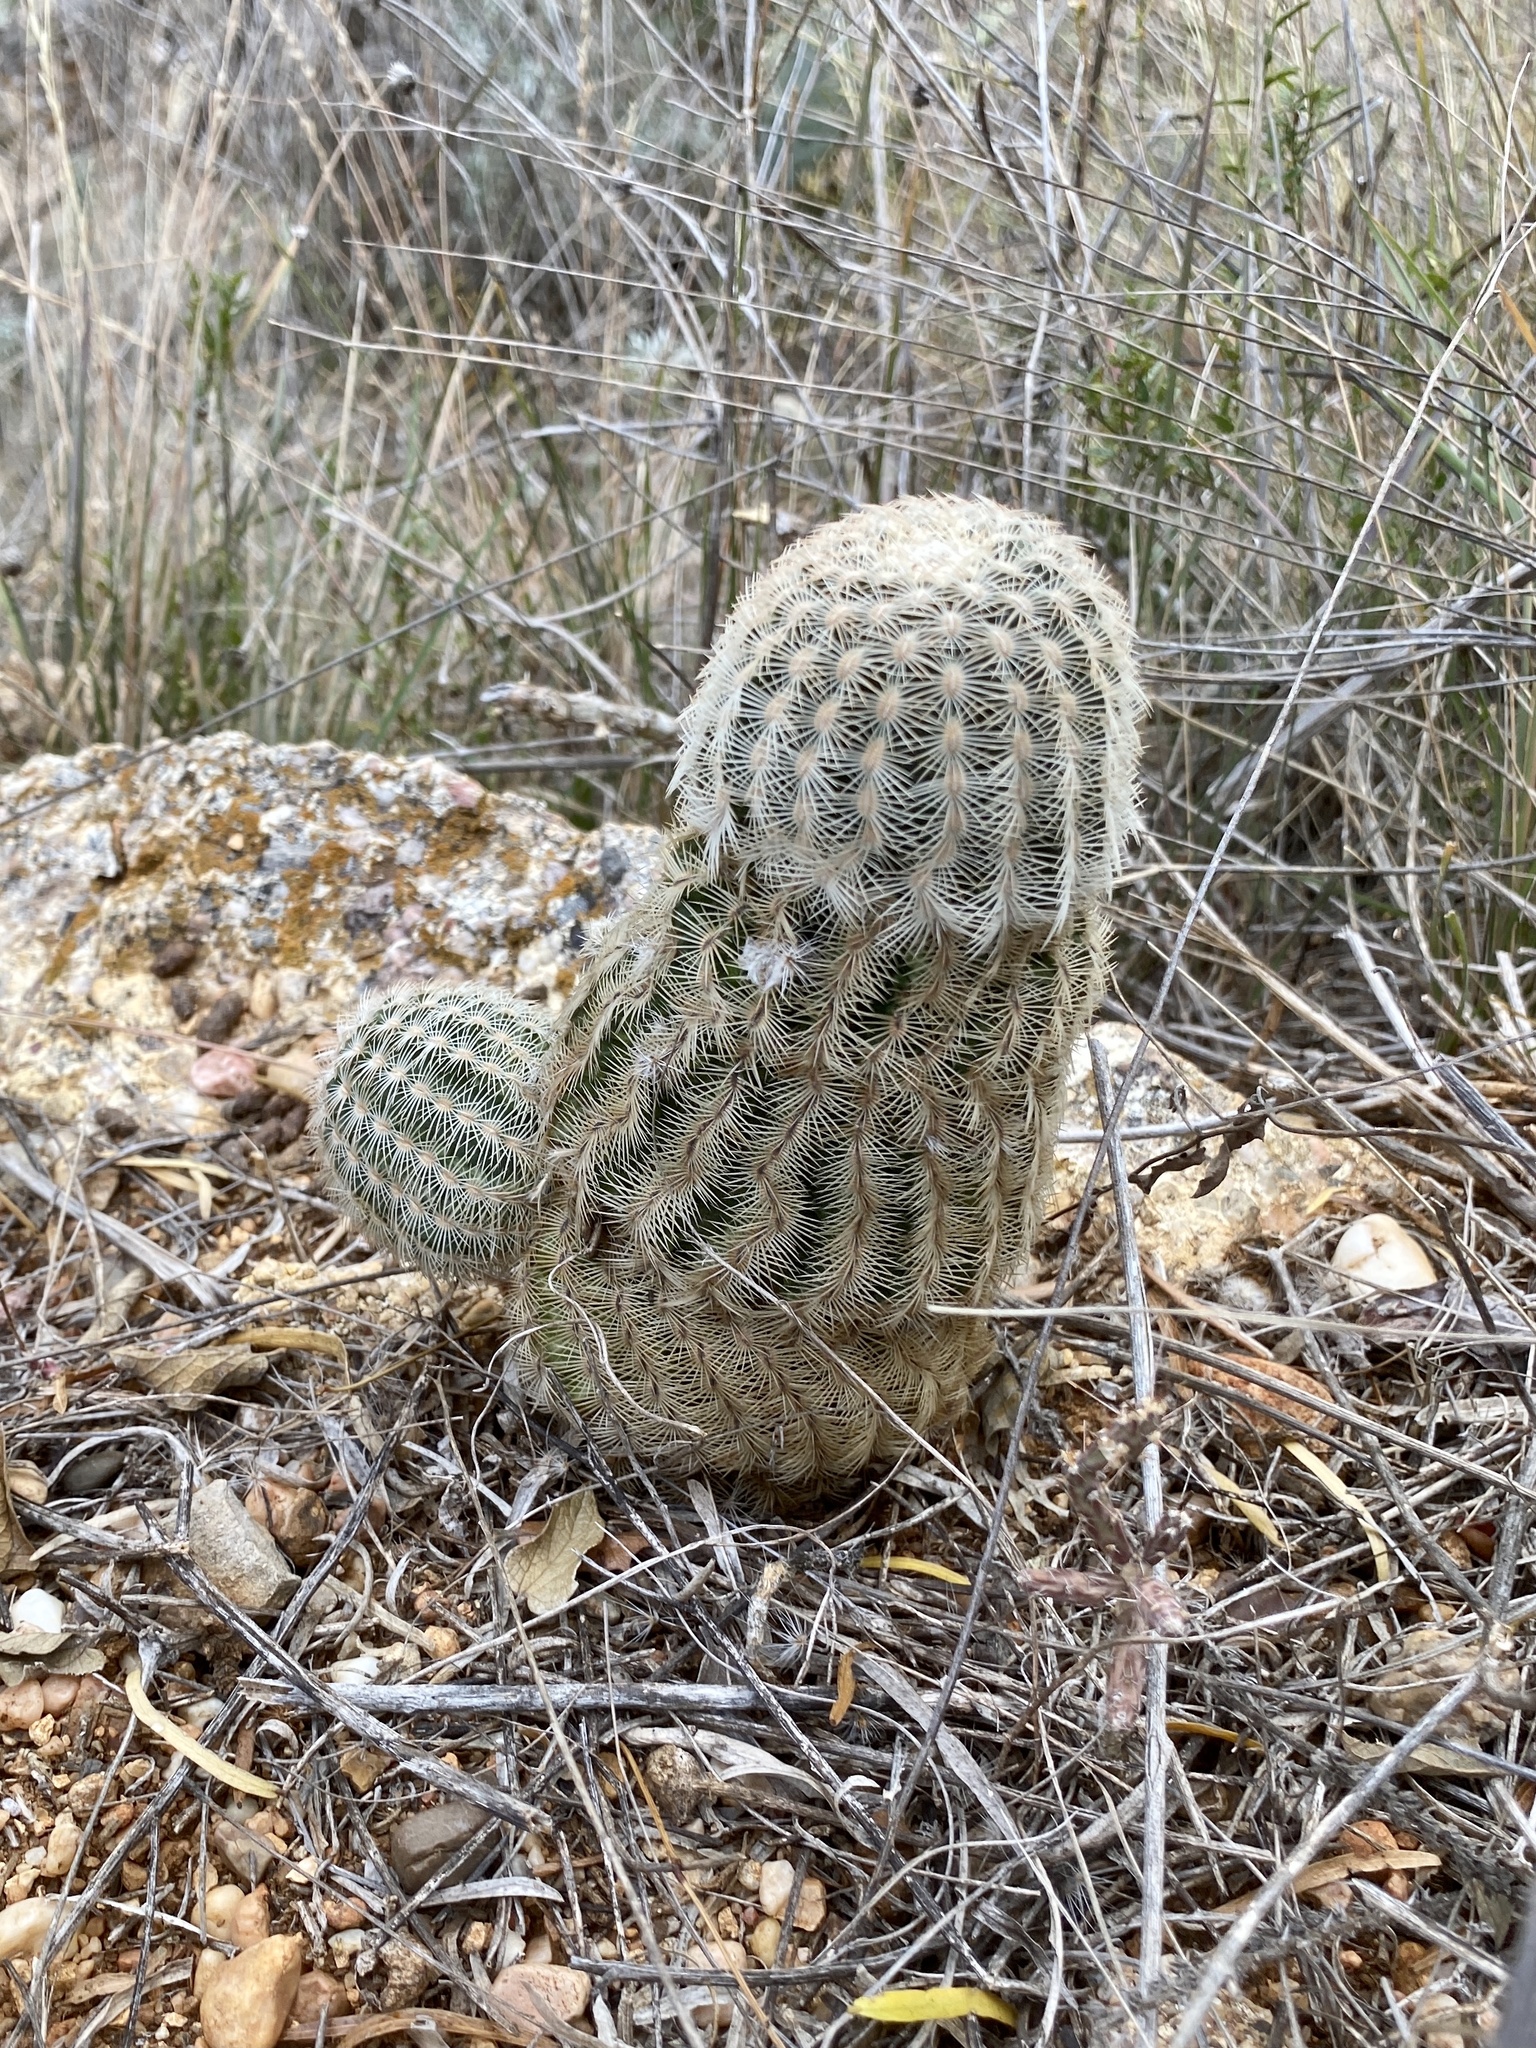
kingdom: Plantae
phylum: Tracheophyta
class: Magnoliopsida
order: Caryophyllales
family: Cactaceae
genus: Echinocereus
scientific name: Echinocereus reichenbachii
